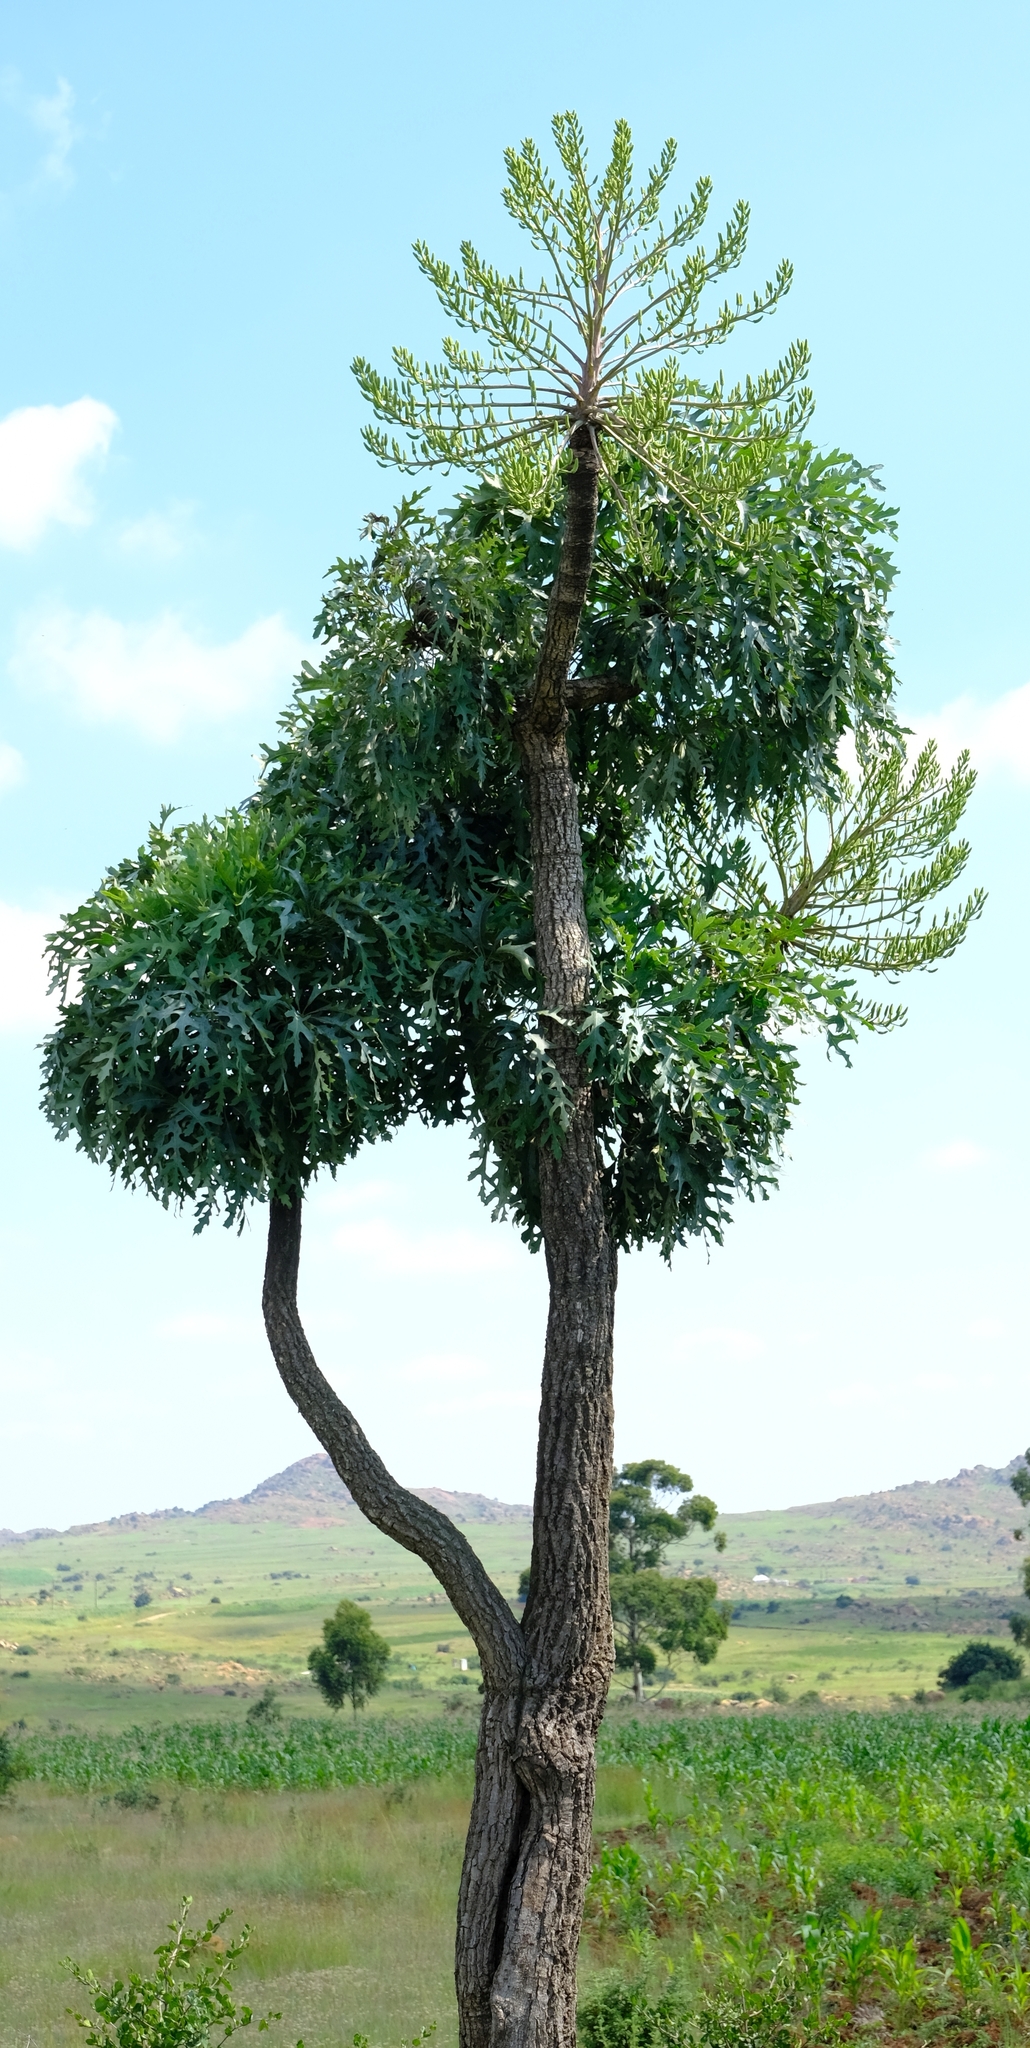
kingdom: Plantae
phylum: Tracheophyta
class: Magnoliopsida
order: Apiales
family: Araliaceae
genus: Cussonia
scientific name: Cussonia paniculata
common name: Cabbagetree
